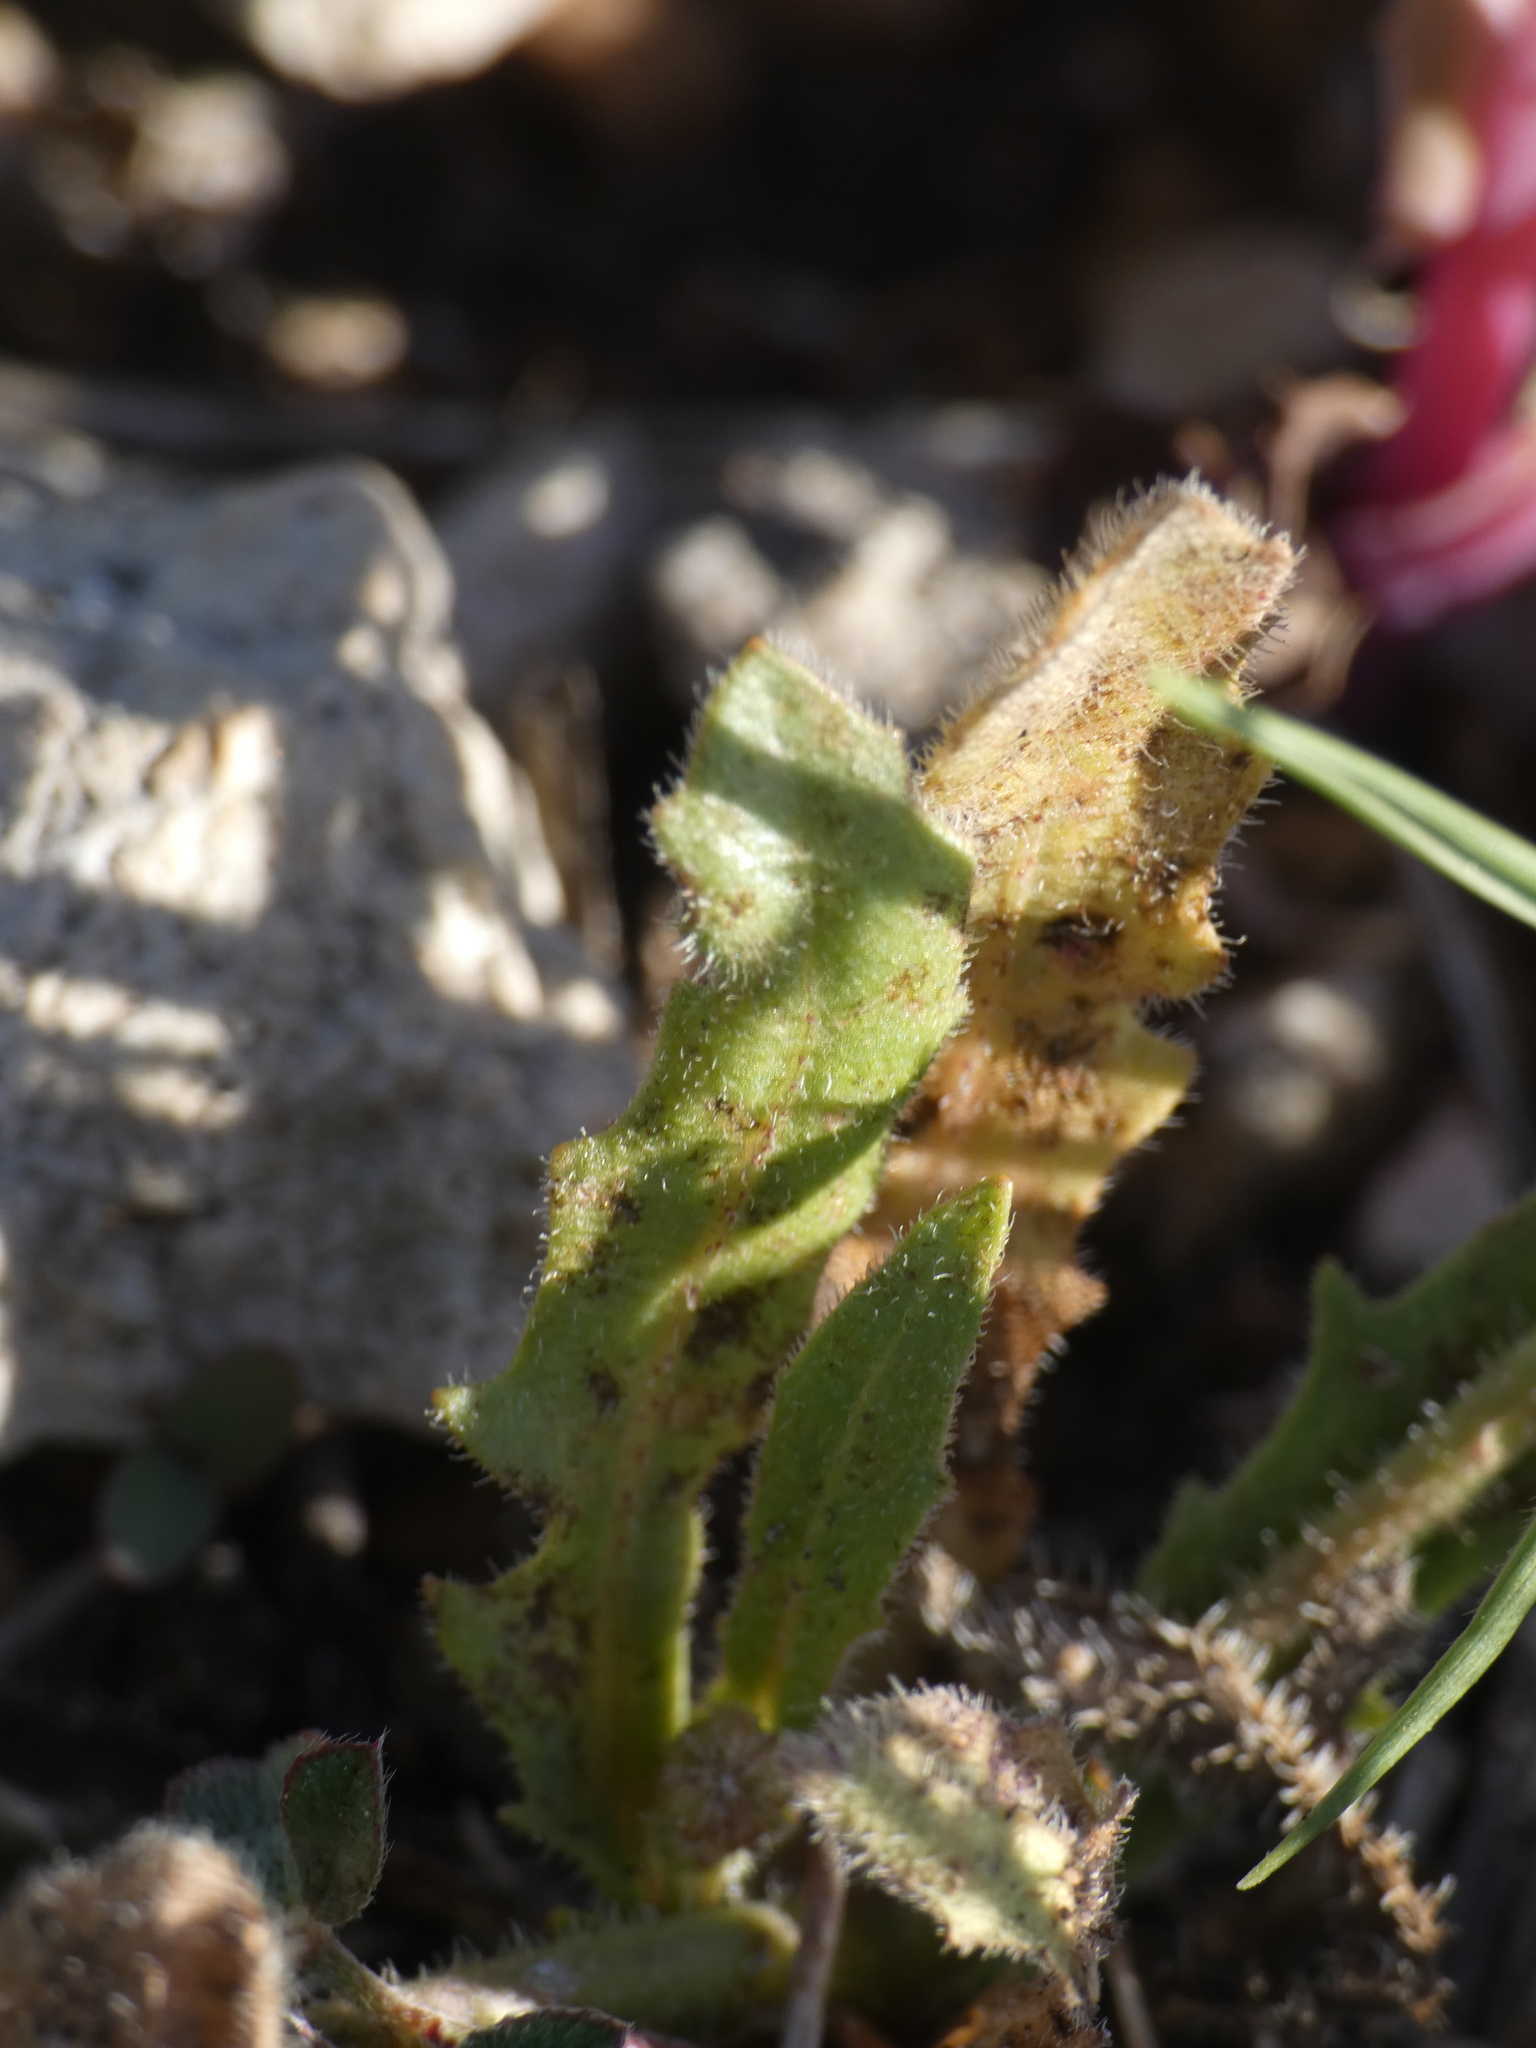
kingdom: Plantae
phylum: Tracheophyta
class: Magnoliopsida
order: Asterales
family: Asteraceae
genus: Hedypnois
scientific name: Hedypnois rhagadioloides
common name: Cretan weed
